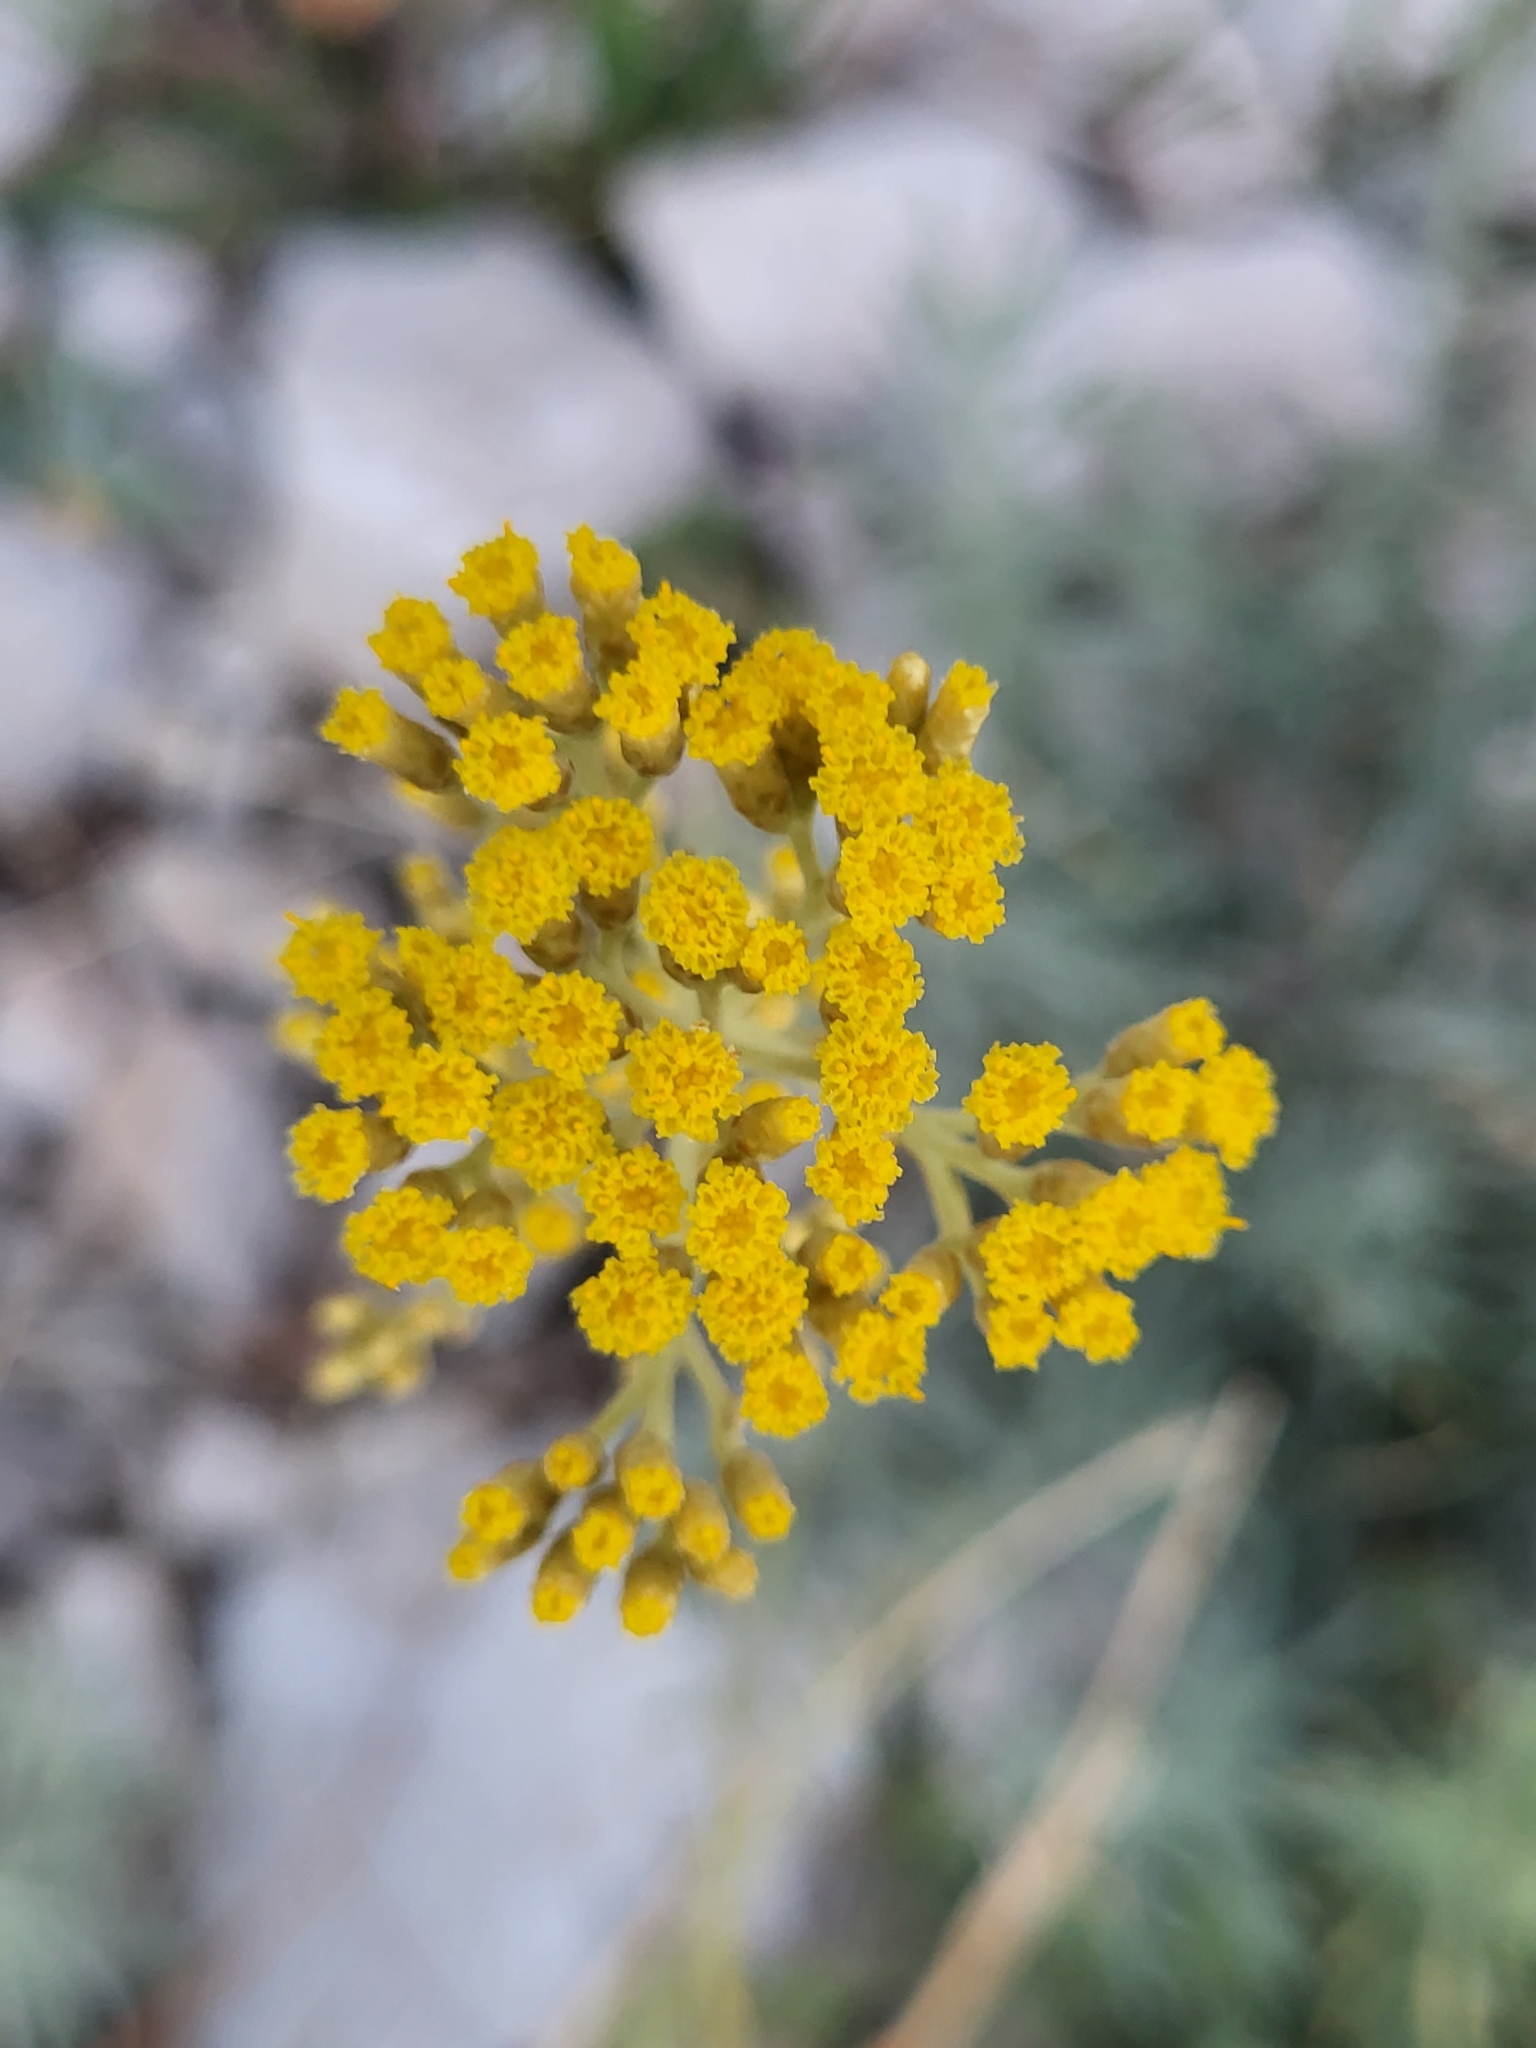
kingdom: Plantae
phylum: Tracheophyta
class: Magnoliopsida
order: Asterales
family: Asteraceae
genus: Helichrysum
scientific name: Helichrysum italicum
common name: Curryplant
